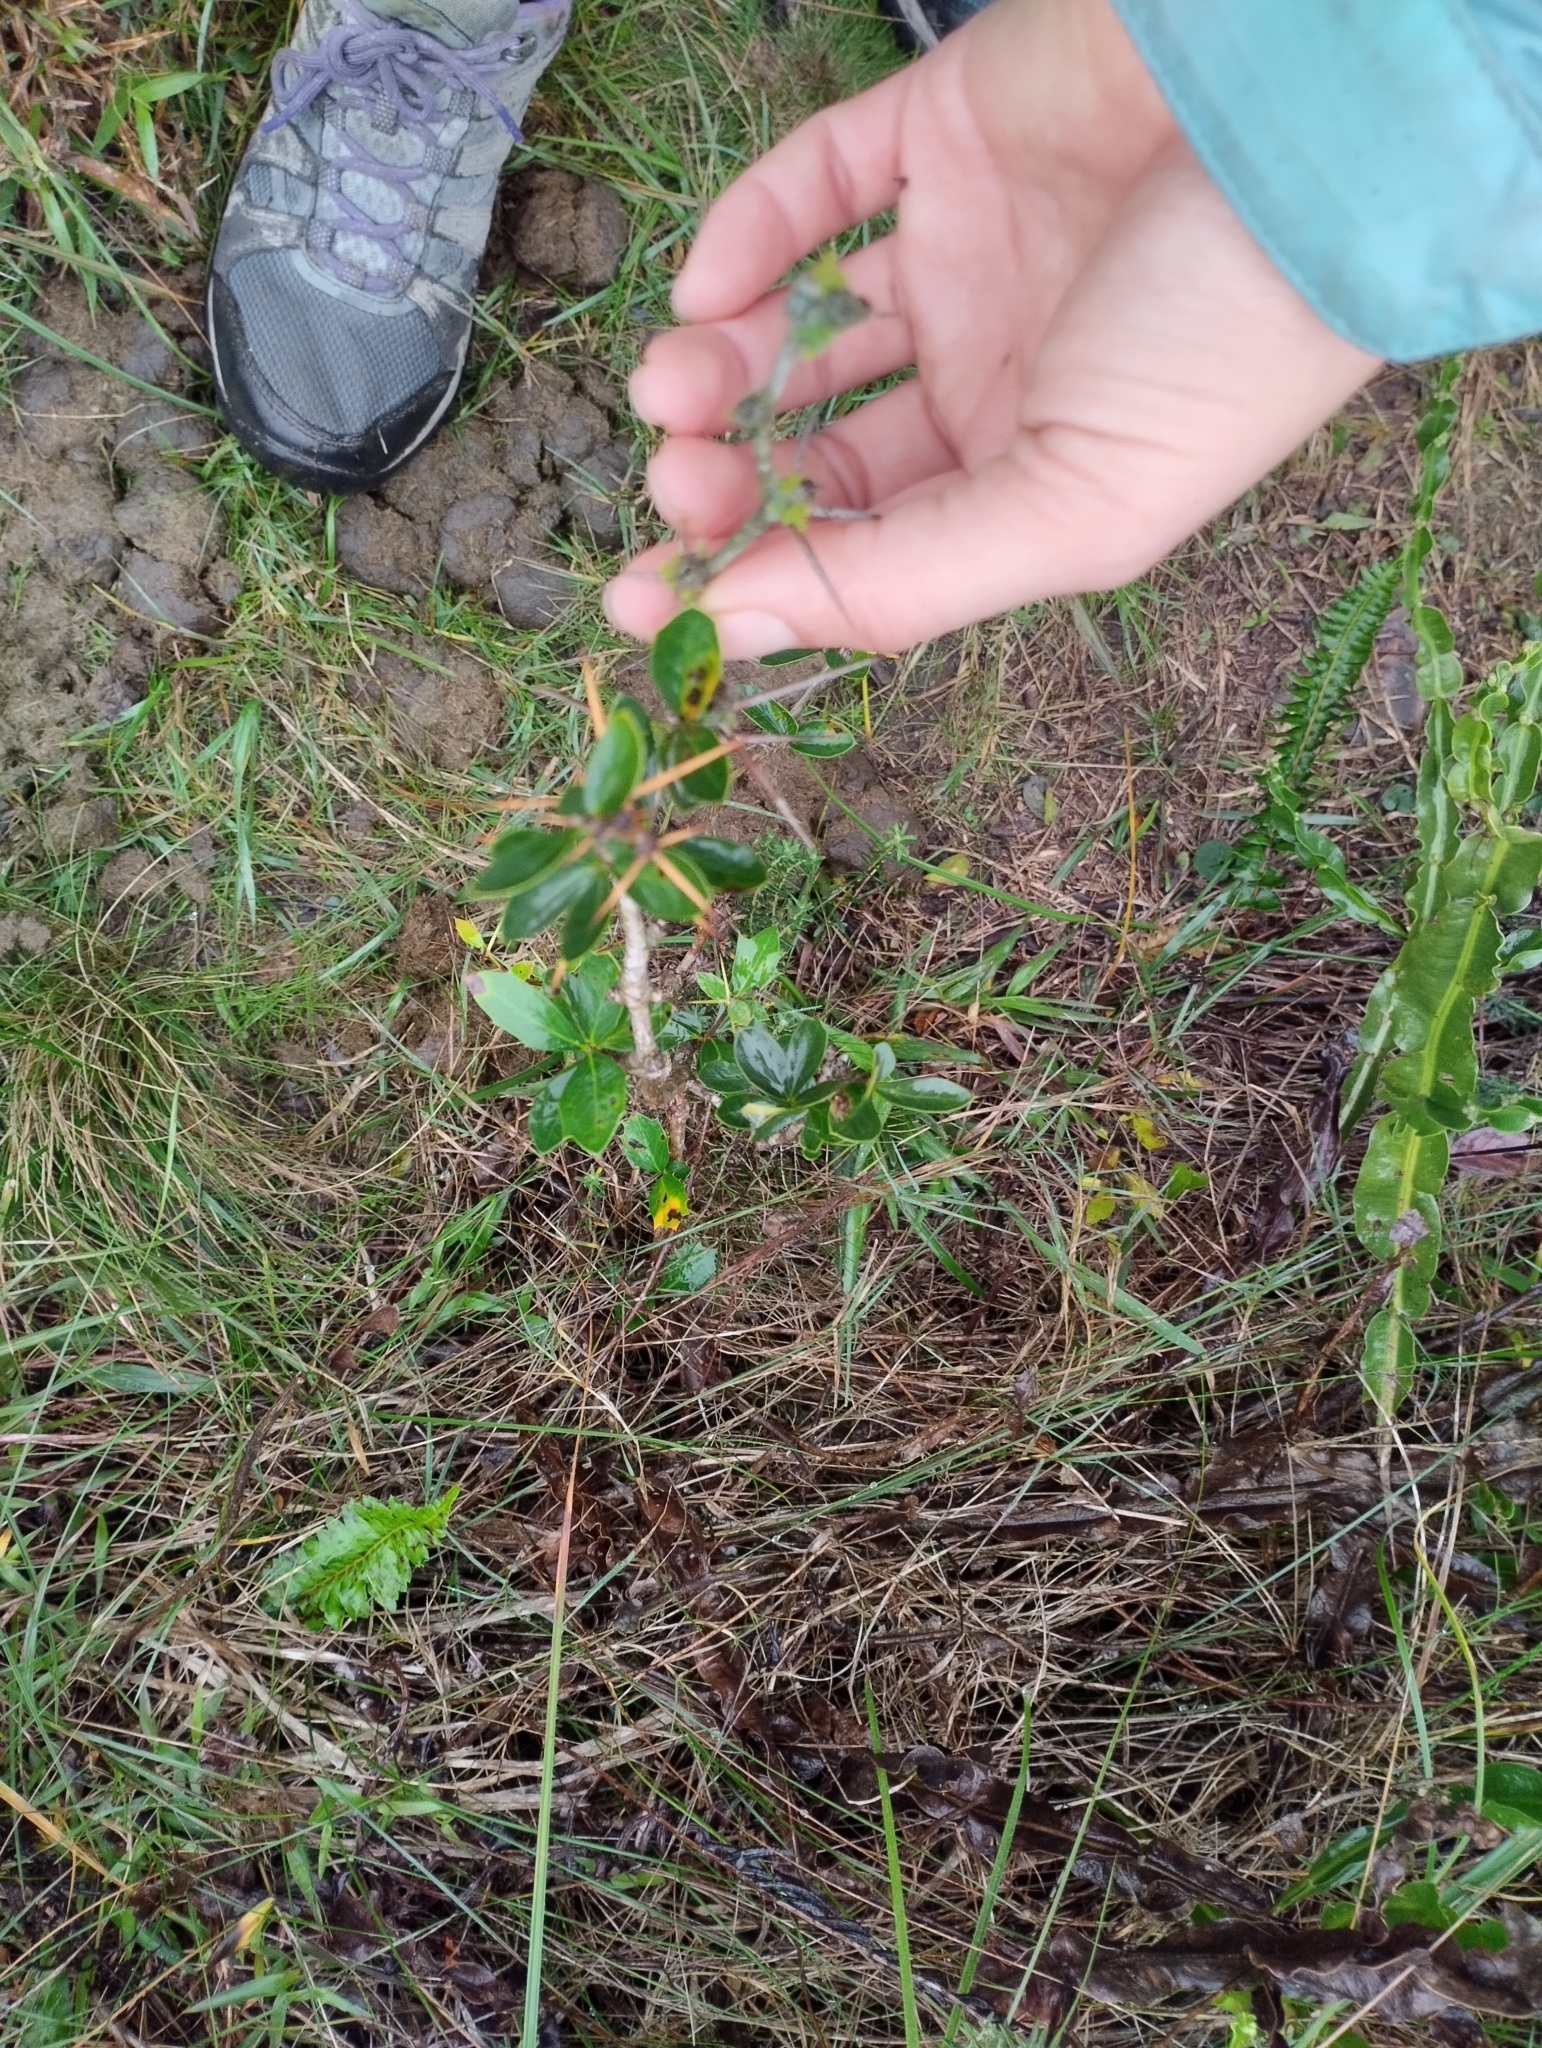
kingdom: Plantae
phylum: Tracheophyta
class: Magnoliopsida
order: Ranunculales
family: Berberidaceae
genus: Berberis
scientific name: Berberis laurina
